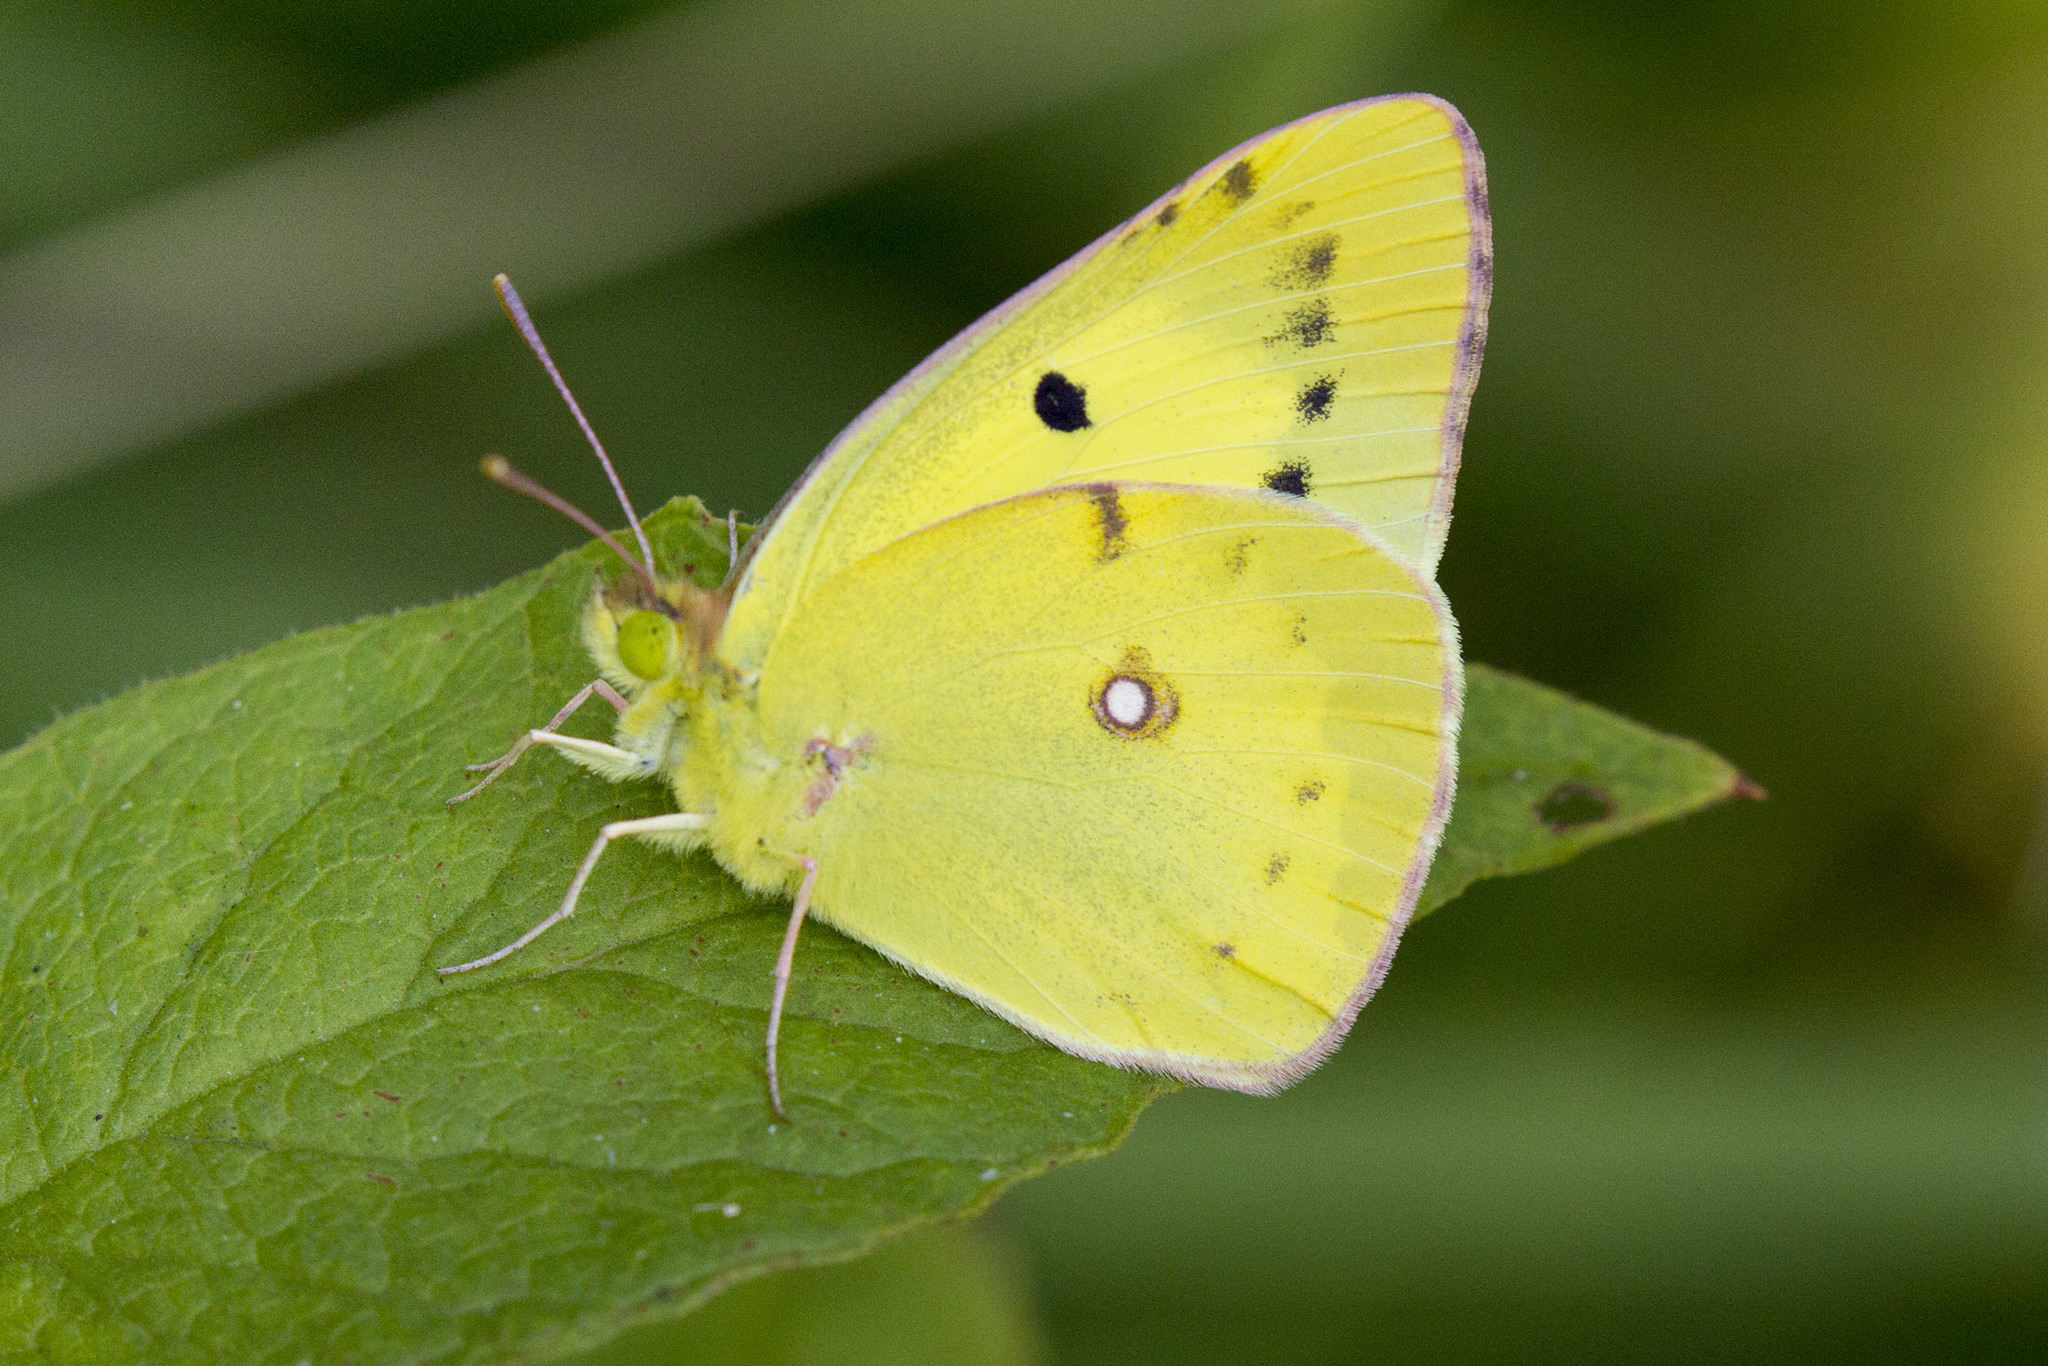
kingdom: Animalia
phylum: Arthropoda
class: Insecta
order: Lepidoptera
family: Pieridae
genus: Colias
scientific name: Colias erate
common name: Eastern pale clouded yellow
